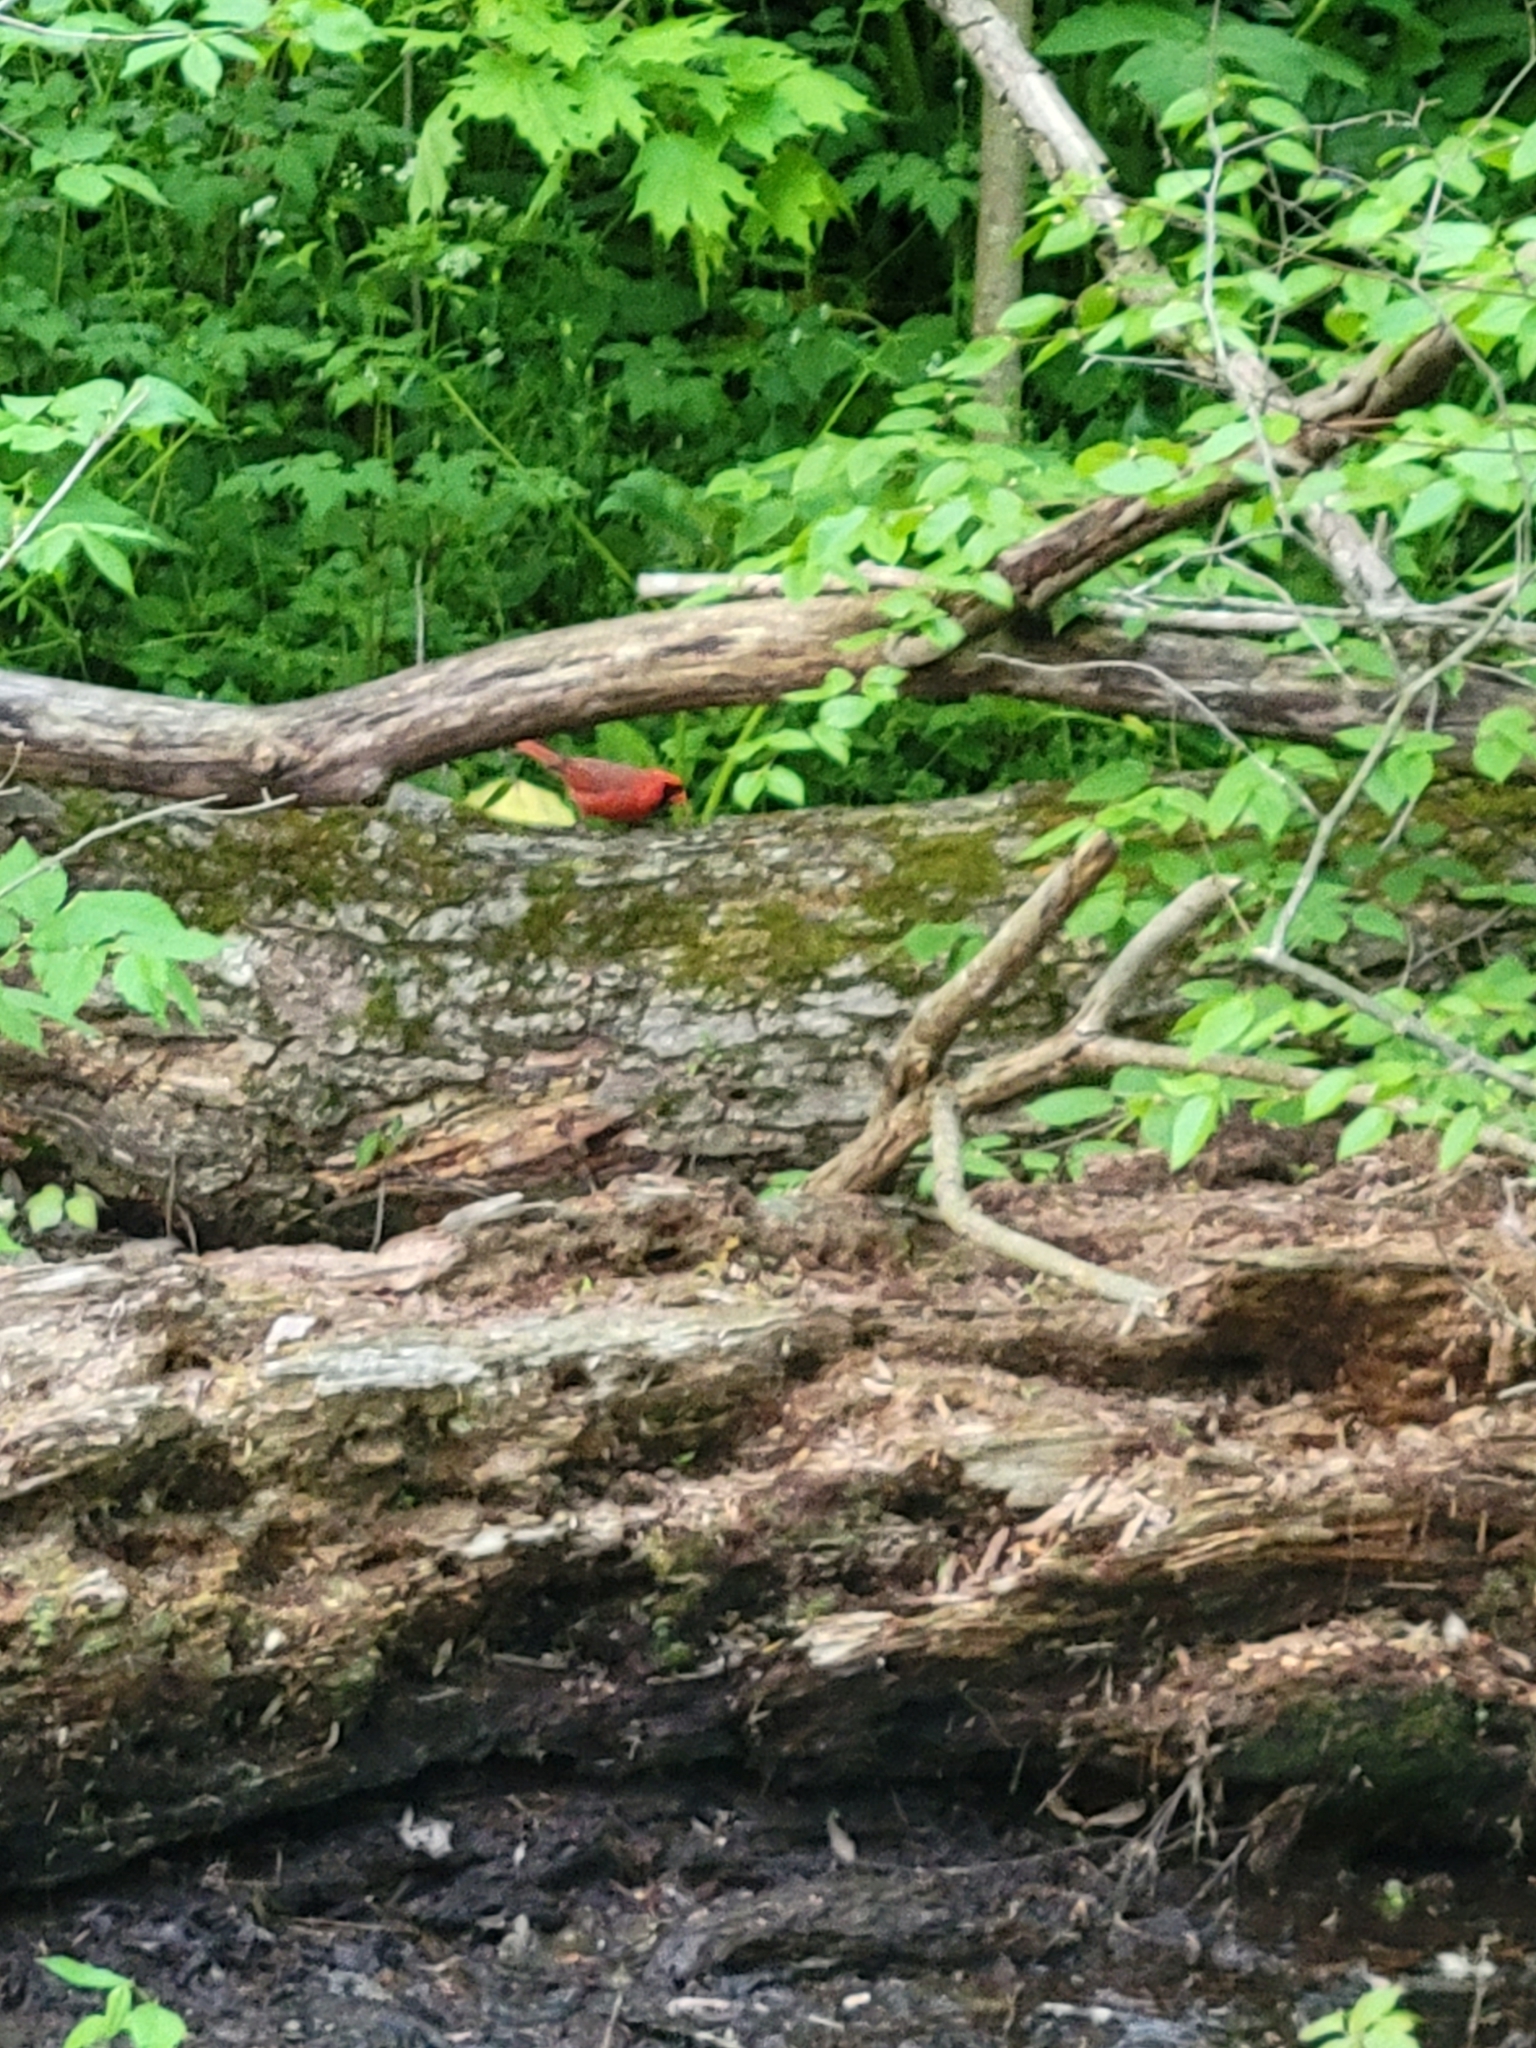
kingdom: Animalia
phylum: Chordata
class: Aves
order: Passeriformes
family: Cardinalidae
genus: Cardinalis
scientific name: Cardinalis cardinalis
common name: Northern cardinal
